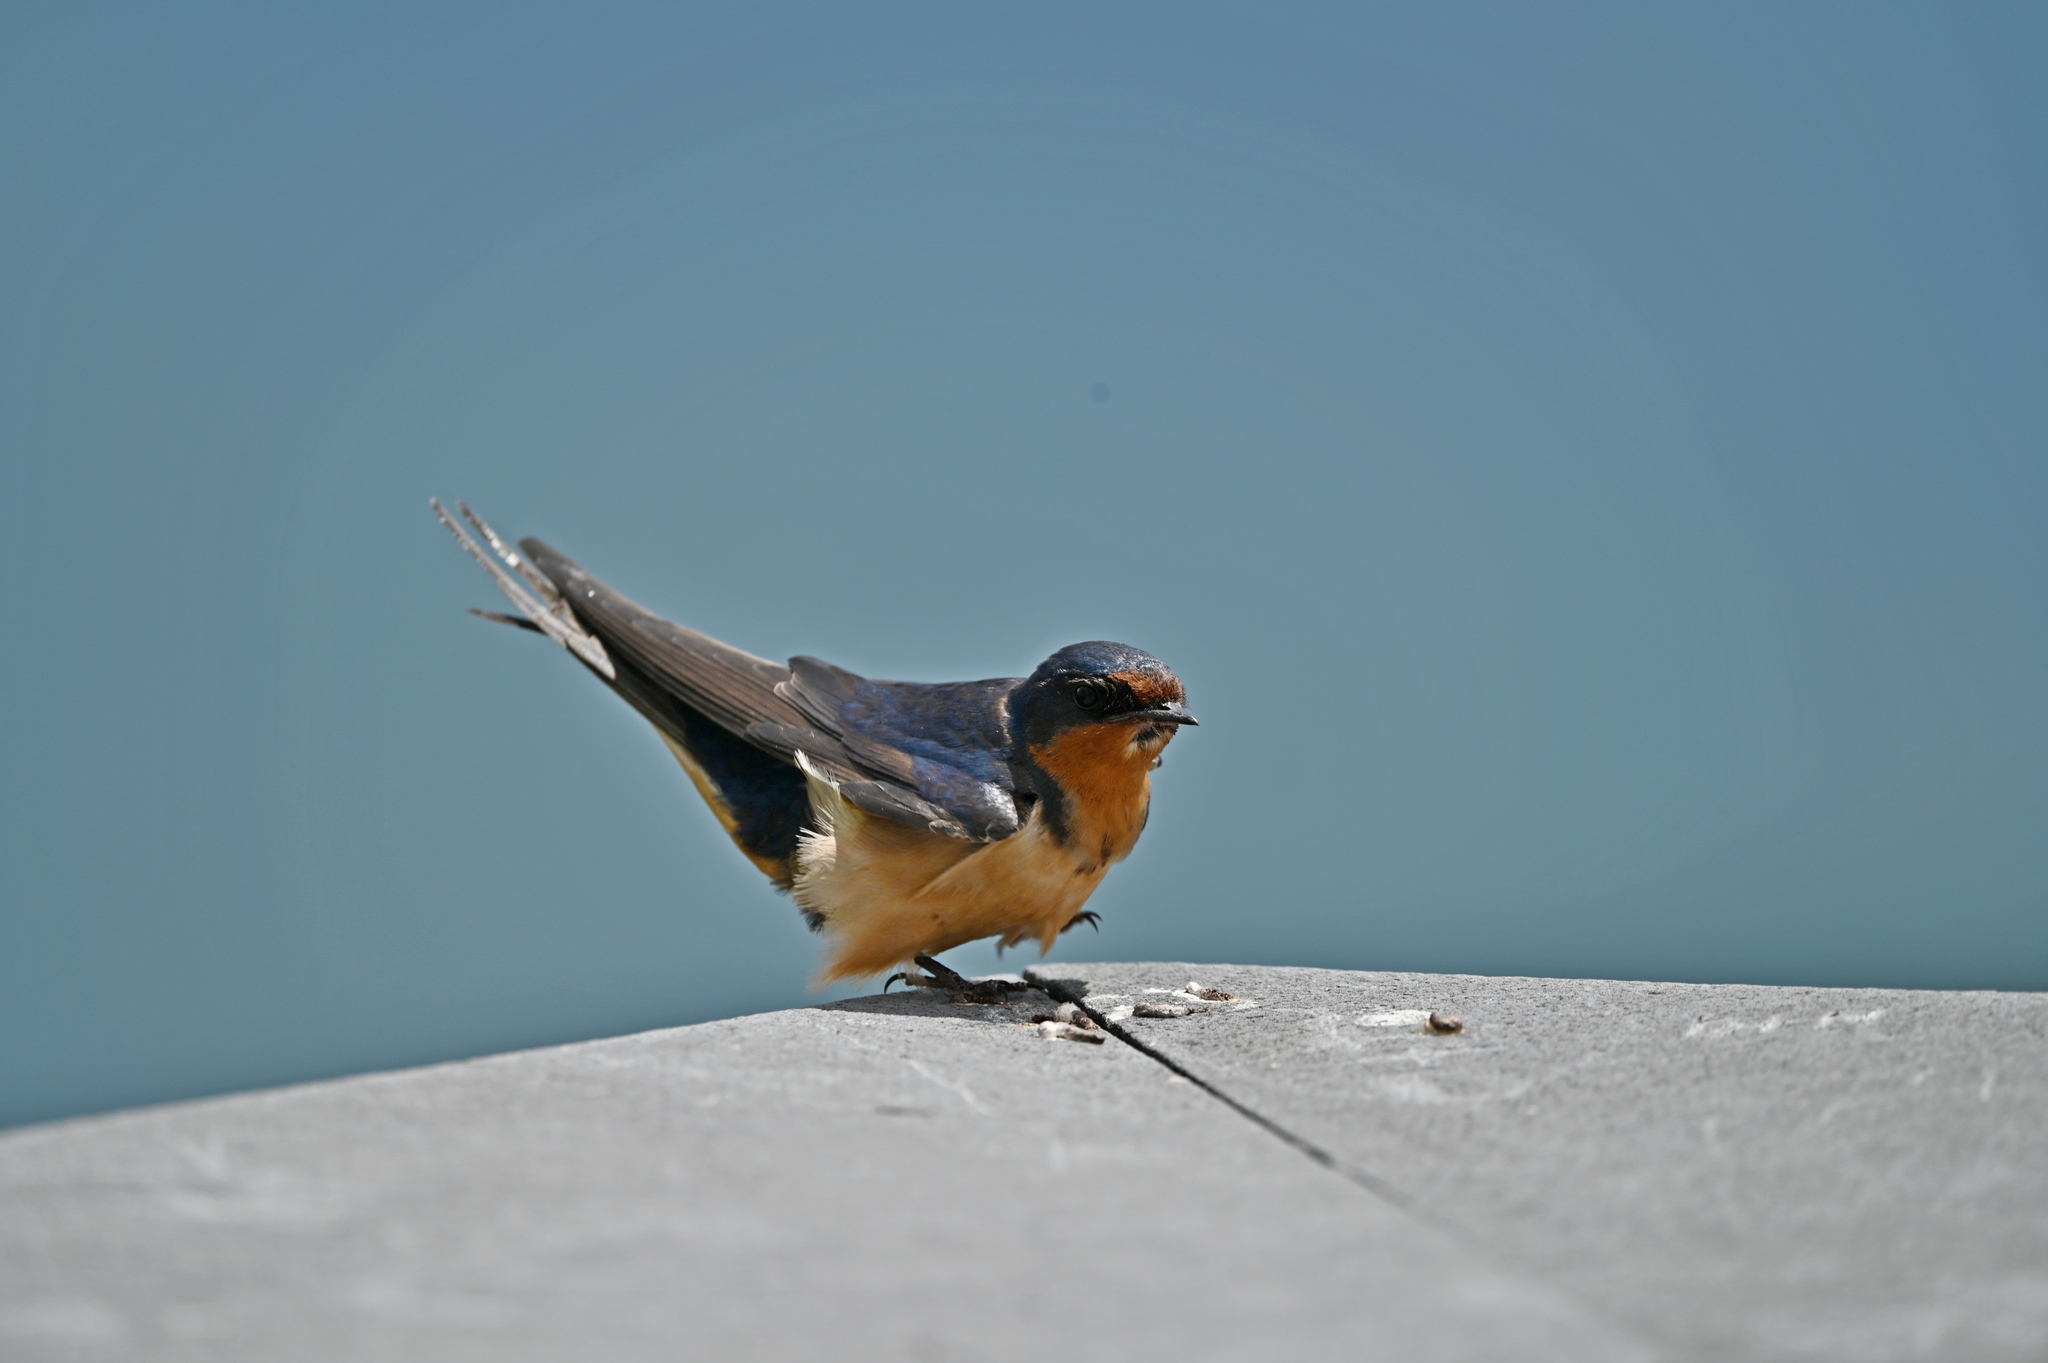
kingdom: Animalia
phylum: Chordata
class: Aves
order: Passeriformes
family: Hirundinidae
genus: Hirundo
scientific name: Hirundo rustica
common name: Barn swallow
